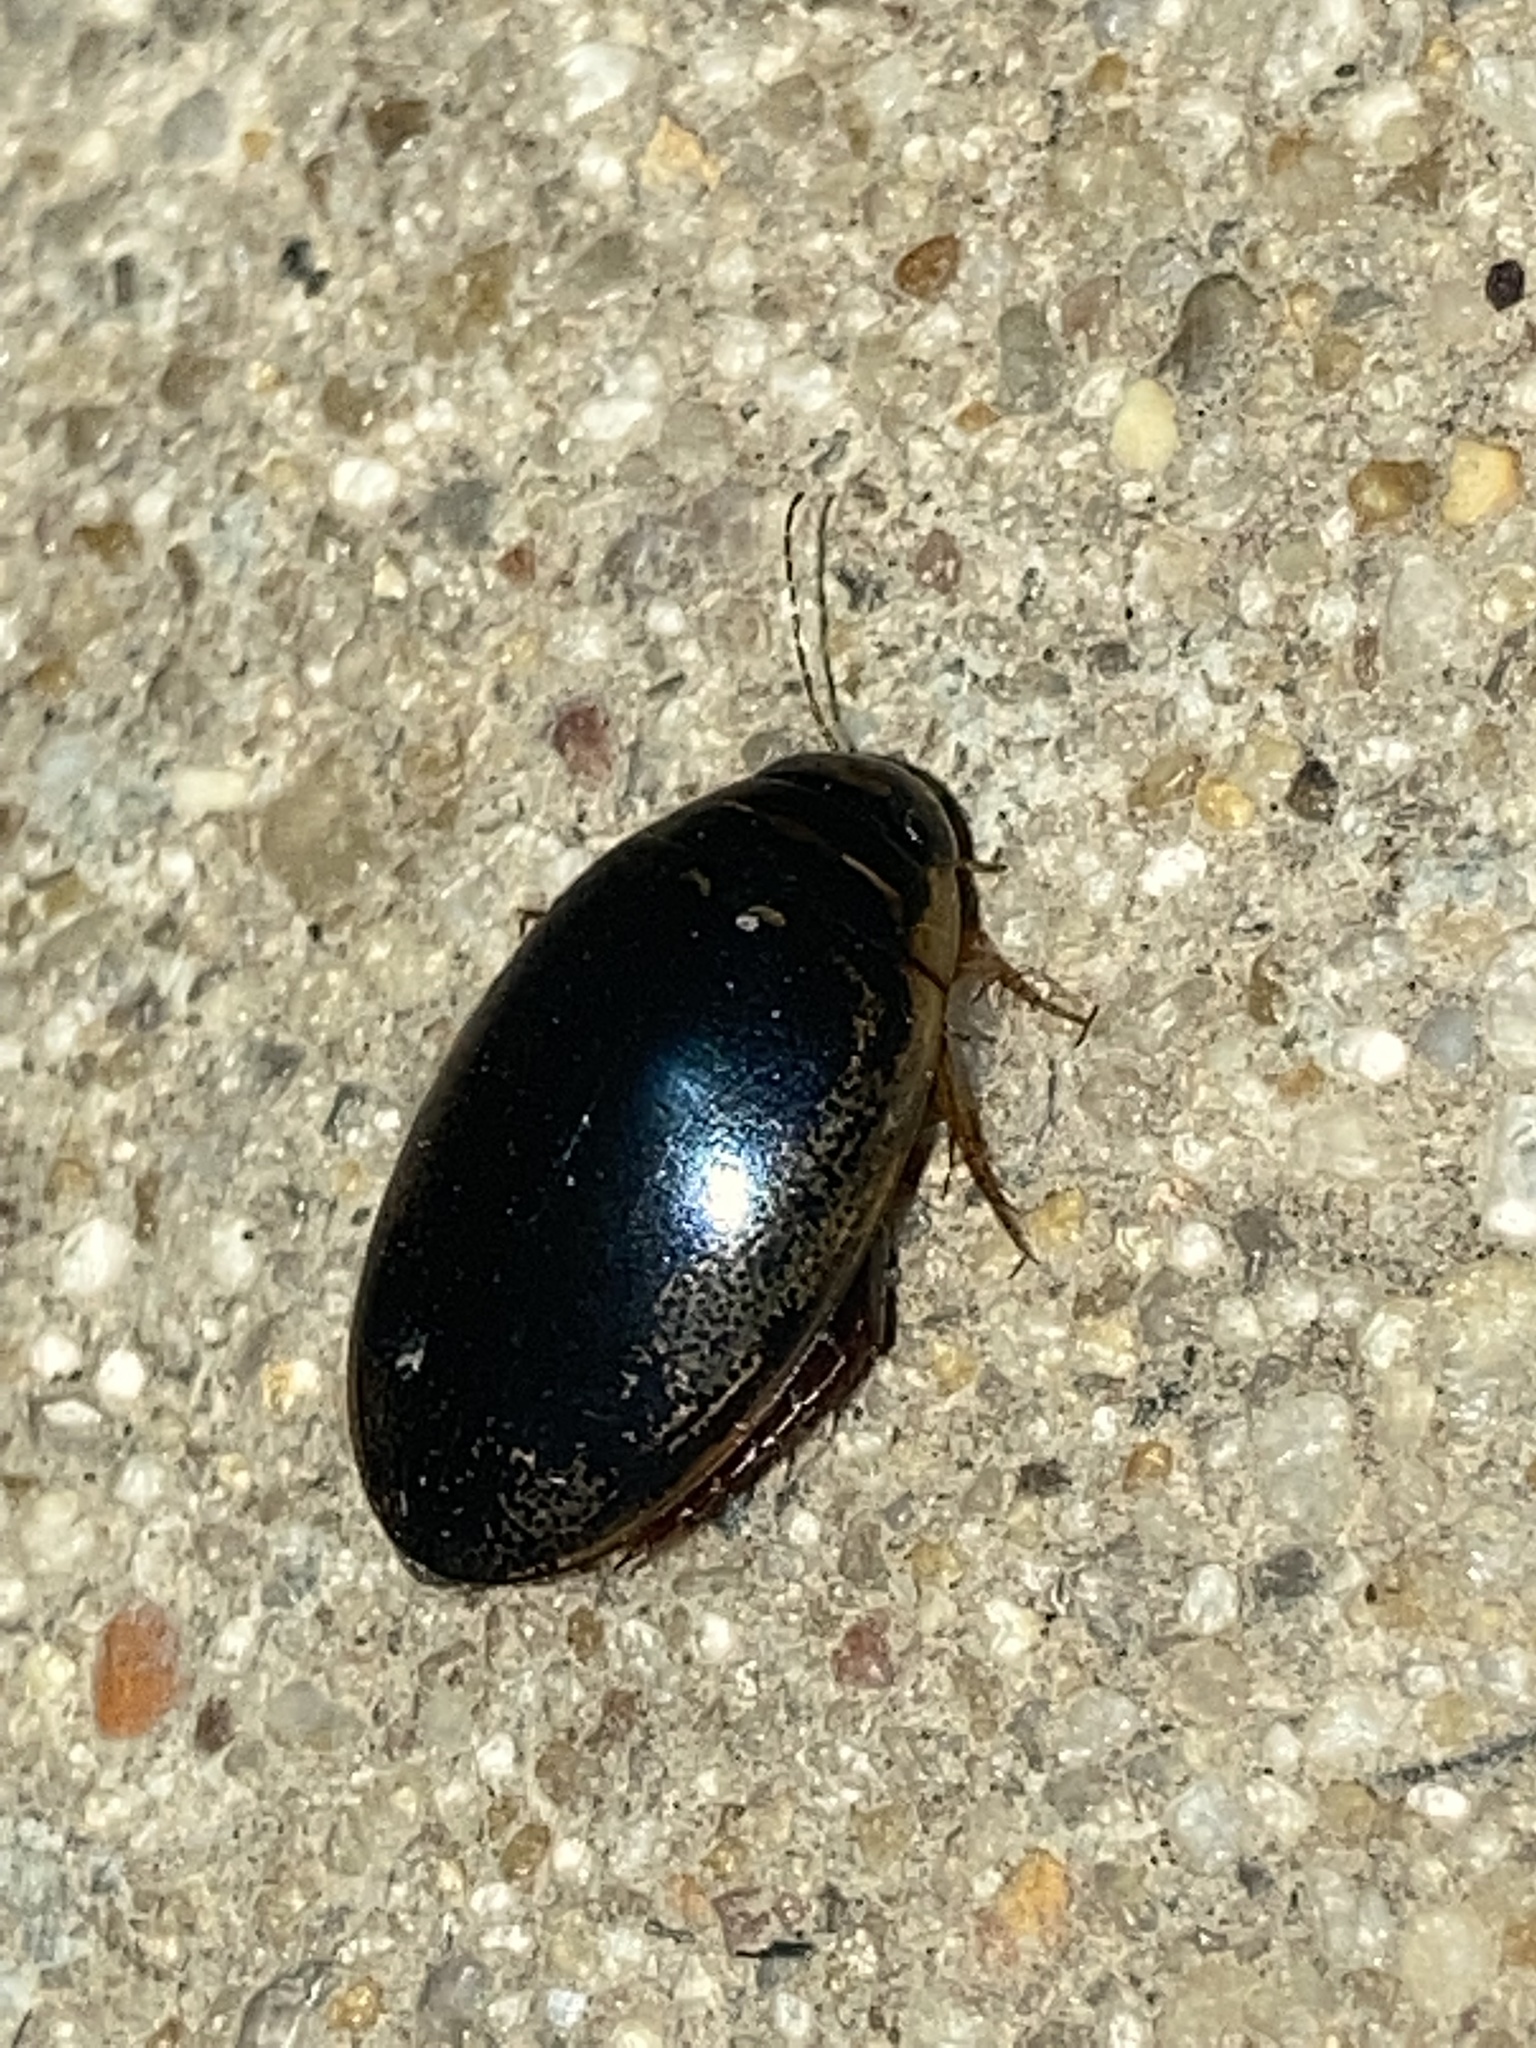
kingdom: Animalia
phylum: Arthropoda
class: Insecta
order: Coleoptera
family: Dytiscidae
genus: Thermonectus
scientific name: Thermonectus basillaris
